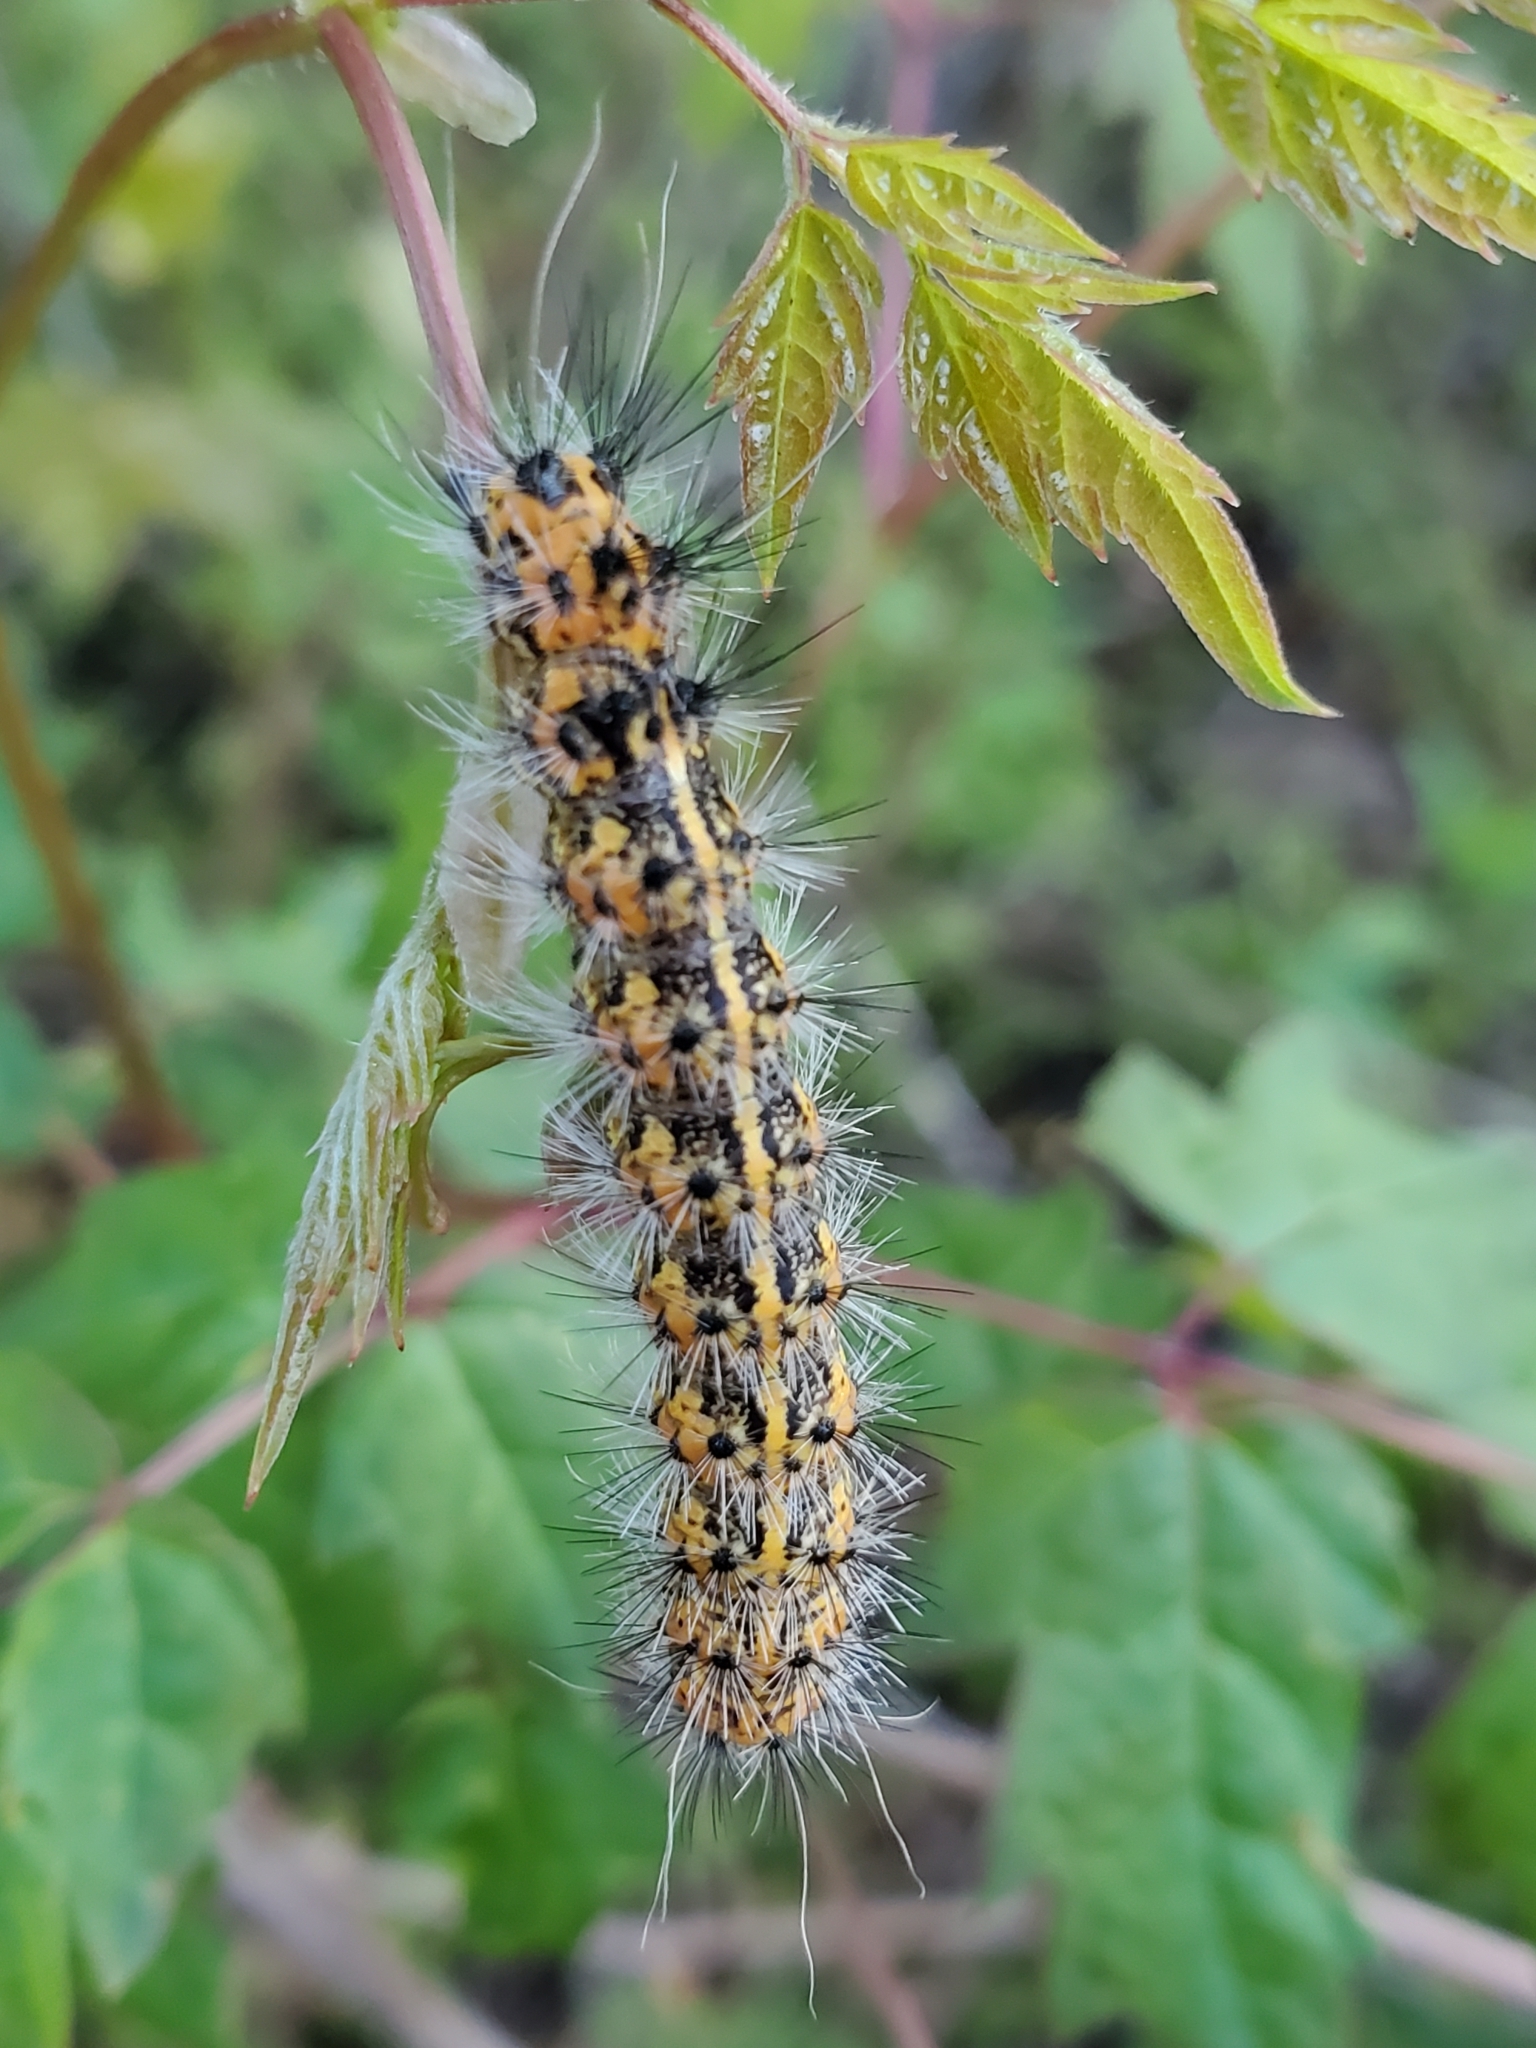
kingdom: Animalia
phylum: Arthropoda
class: Insecta
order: Lepidoptera
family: Erebidae
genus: Spilosoma
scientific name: Spilosoma dubia
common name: Dubious tiger moth
